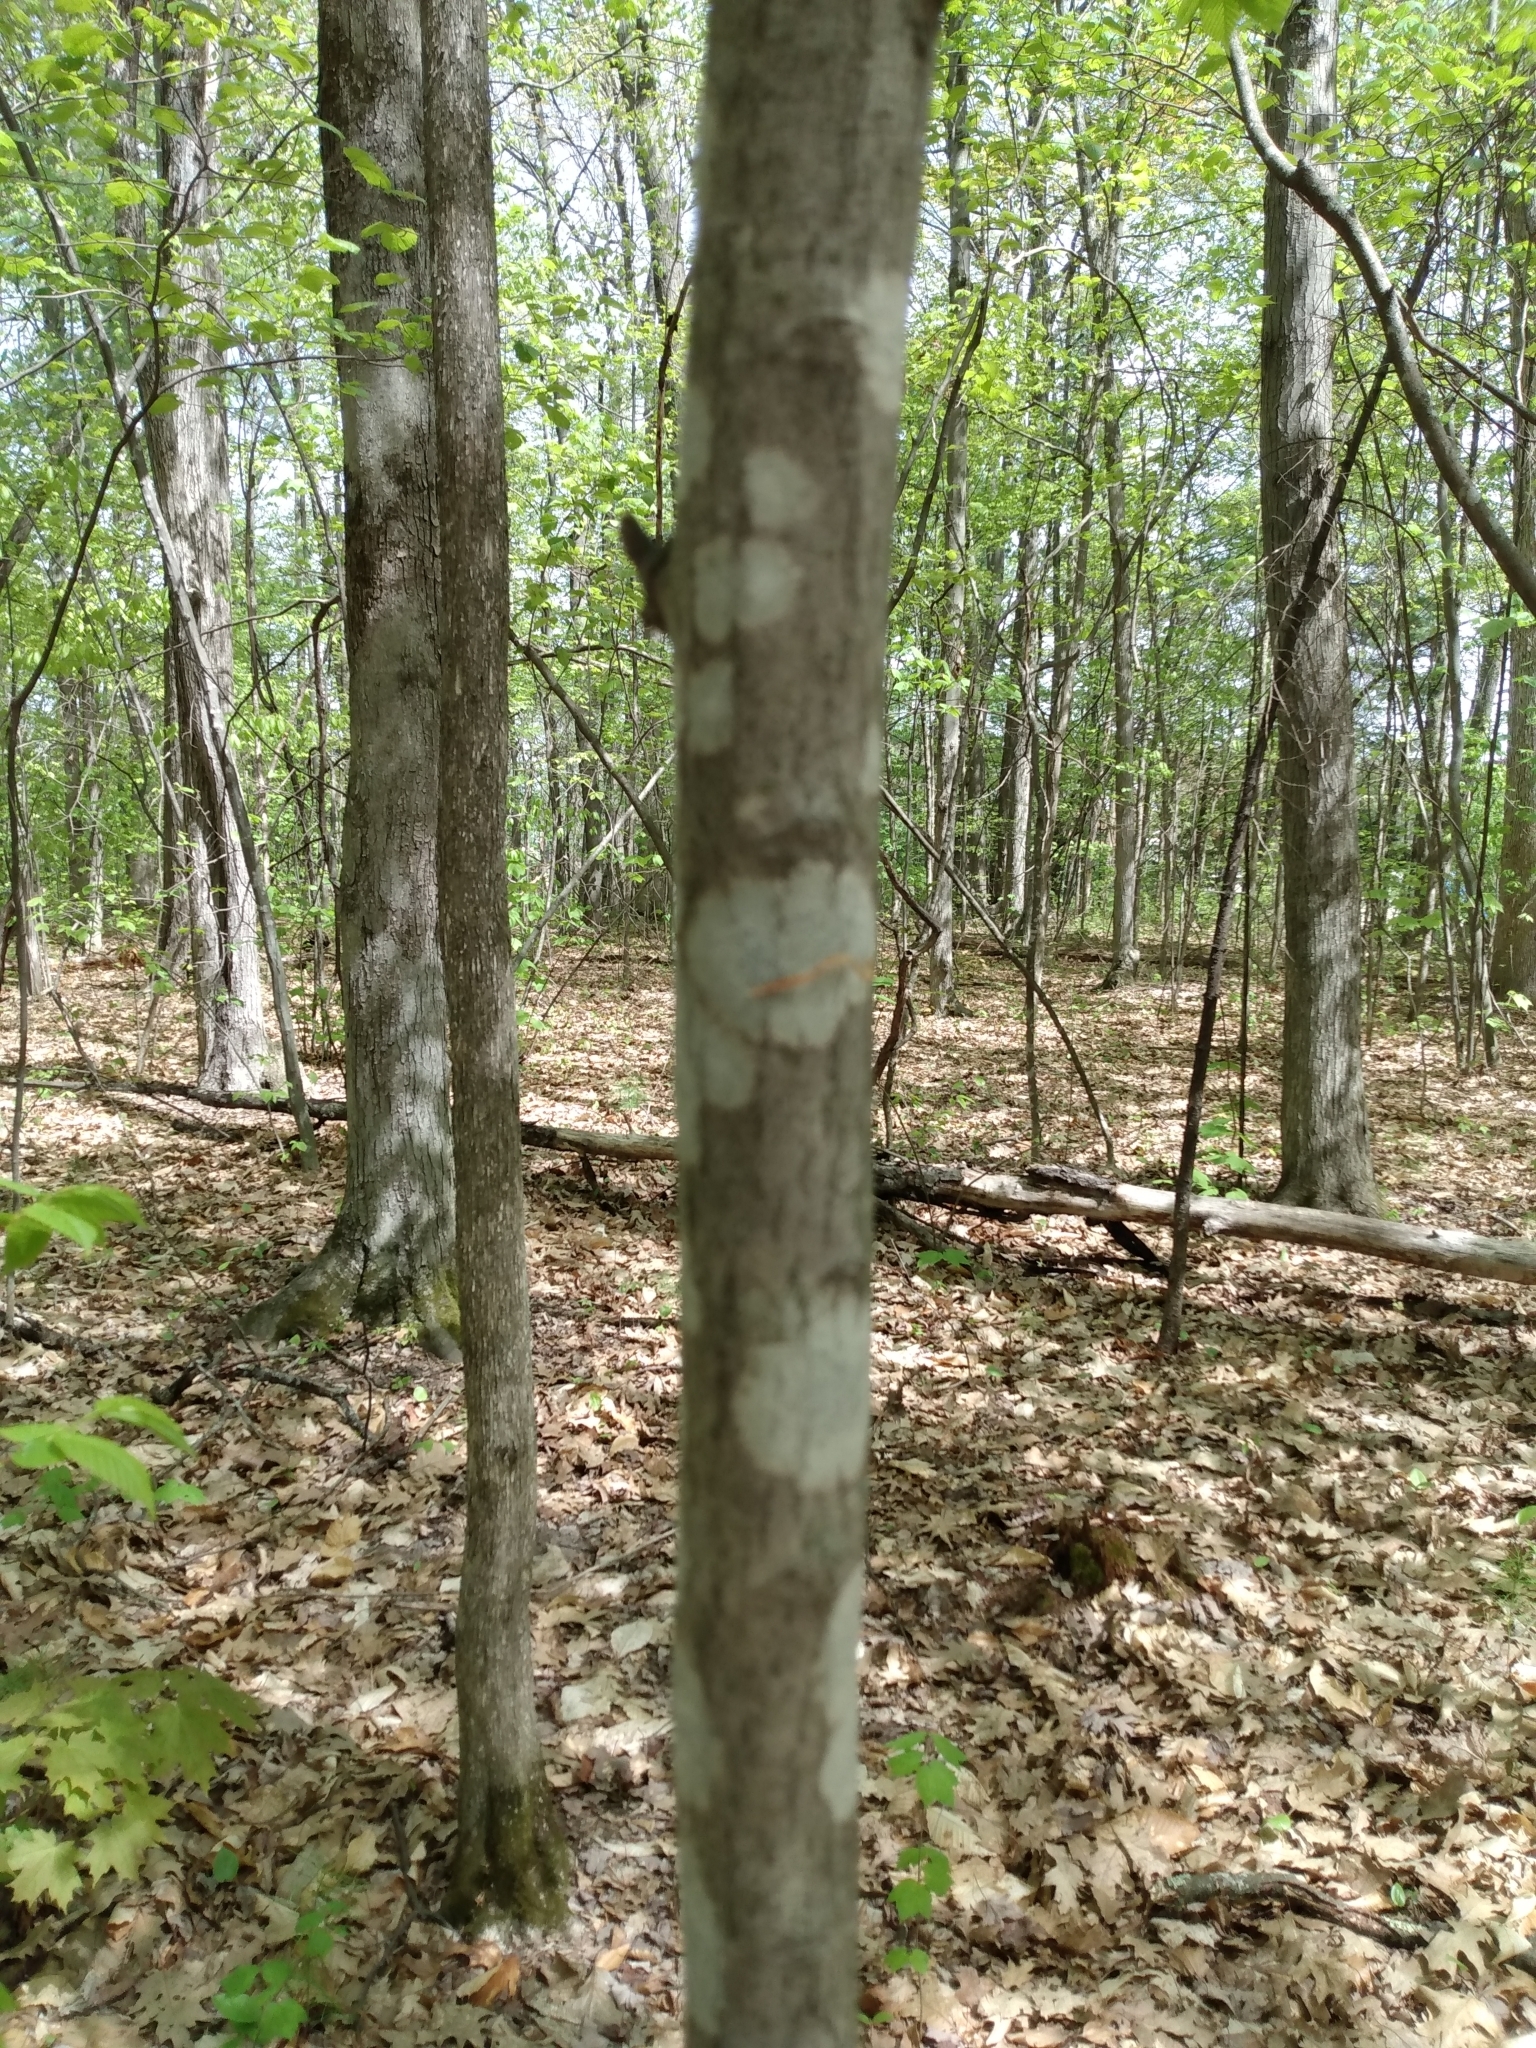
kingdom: Plantae
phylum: Tracheophyta
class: Magnoliopsida
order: Fagales
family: Betulaceae
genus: Carpinus
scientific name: Carpinus caroliniana
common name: American hornbeam
